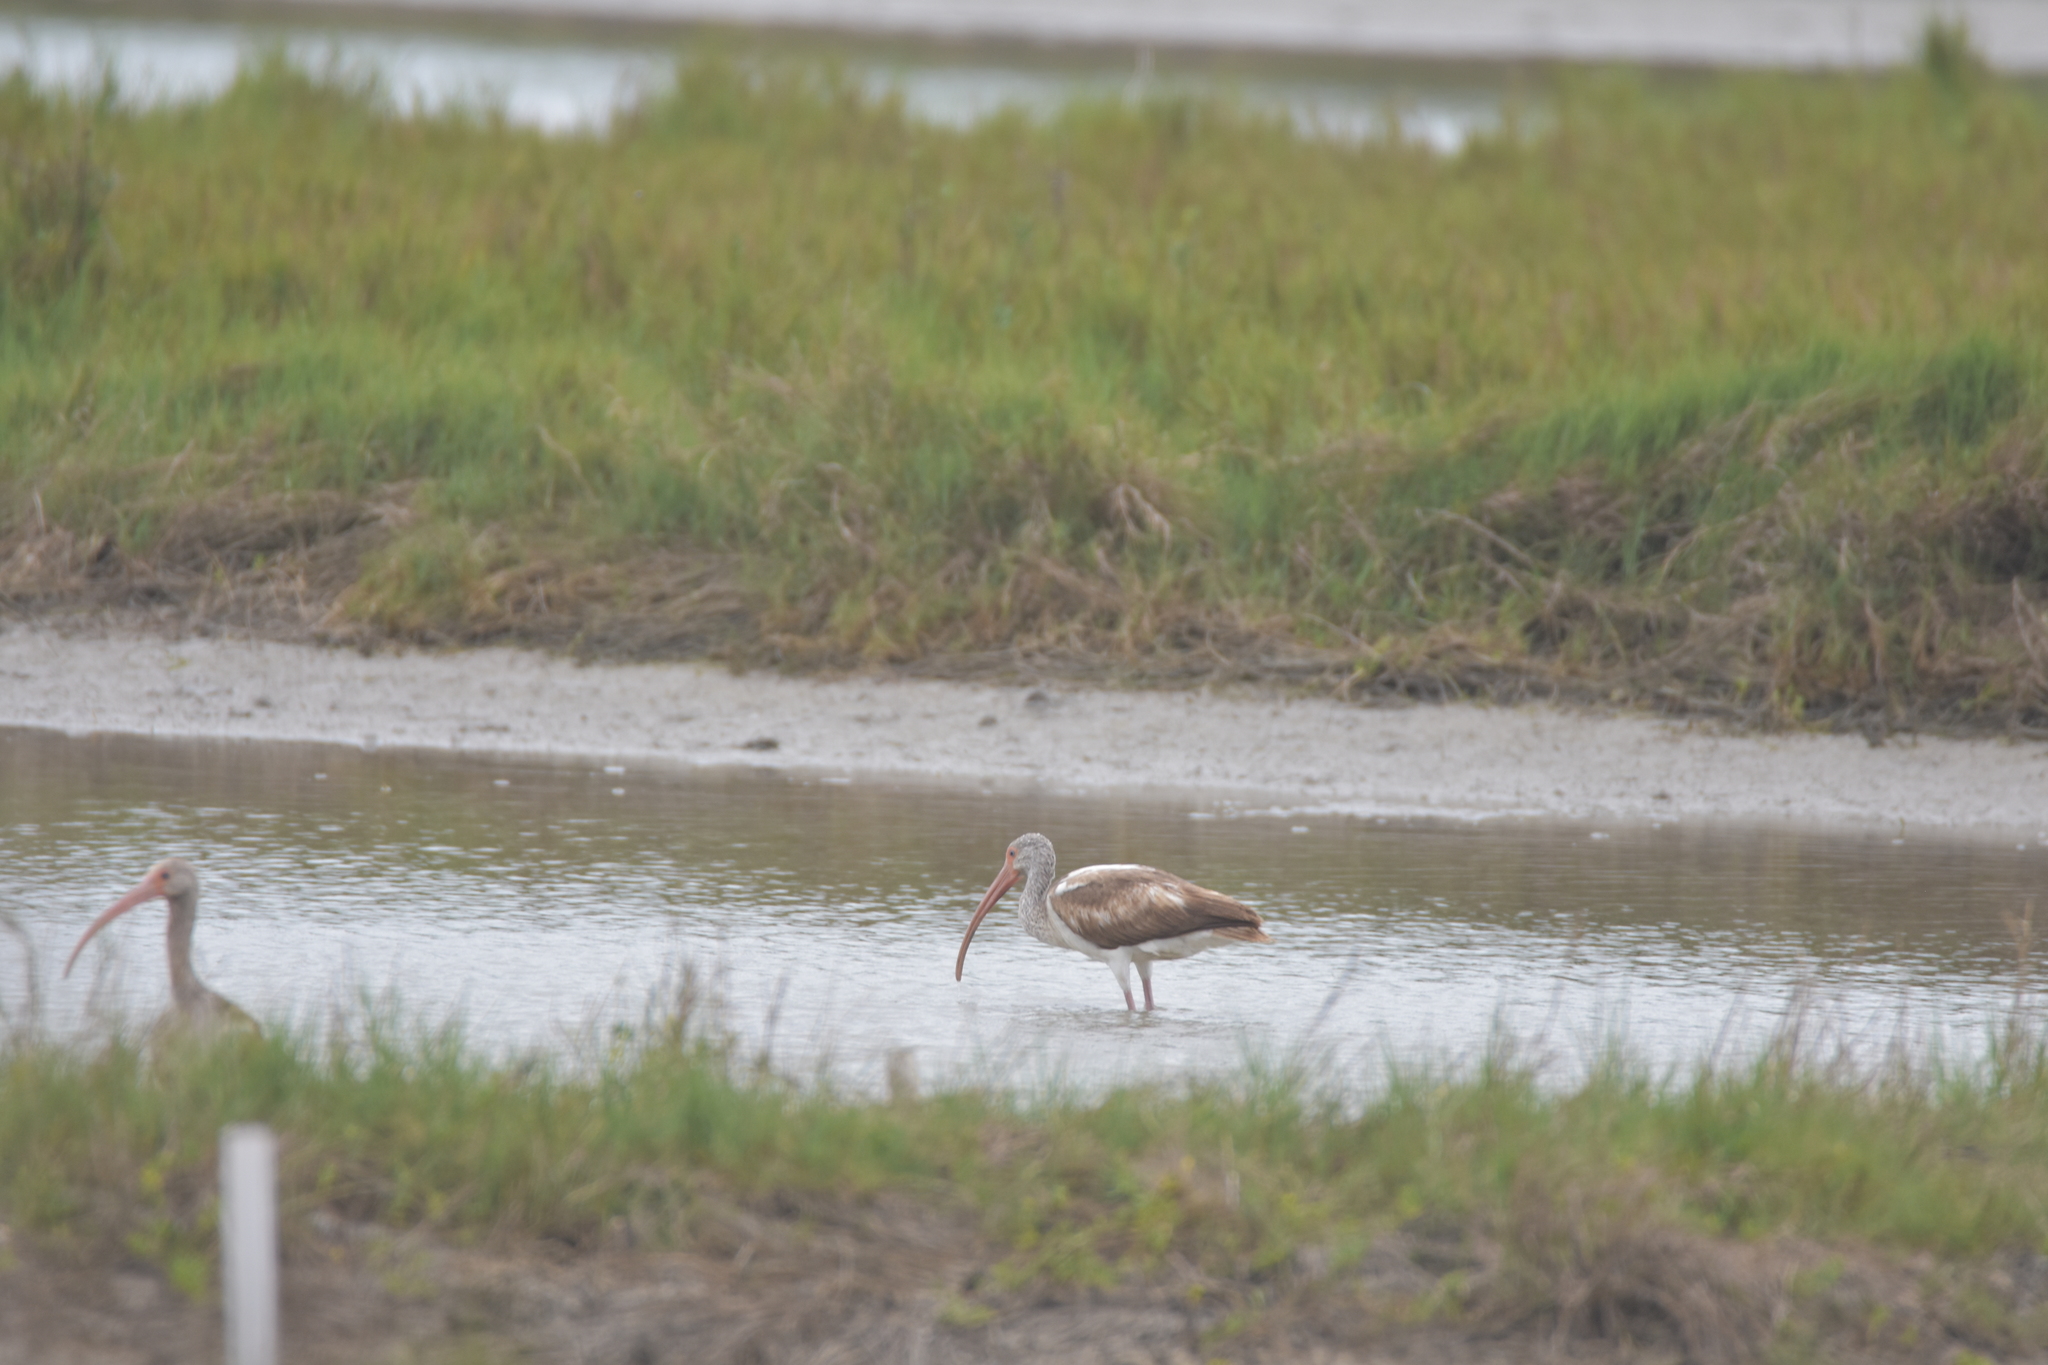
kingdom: Animalia
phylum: Chordata
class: Aves
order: Pelecaniformes
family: Threskiornithidae
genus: Eudocimus
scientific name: Eudocimus albus
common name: White ibis
